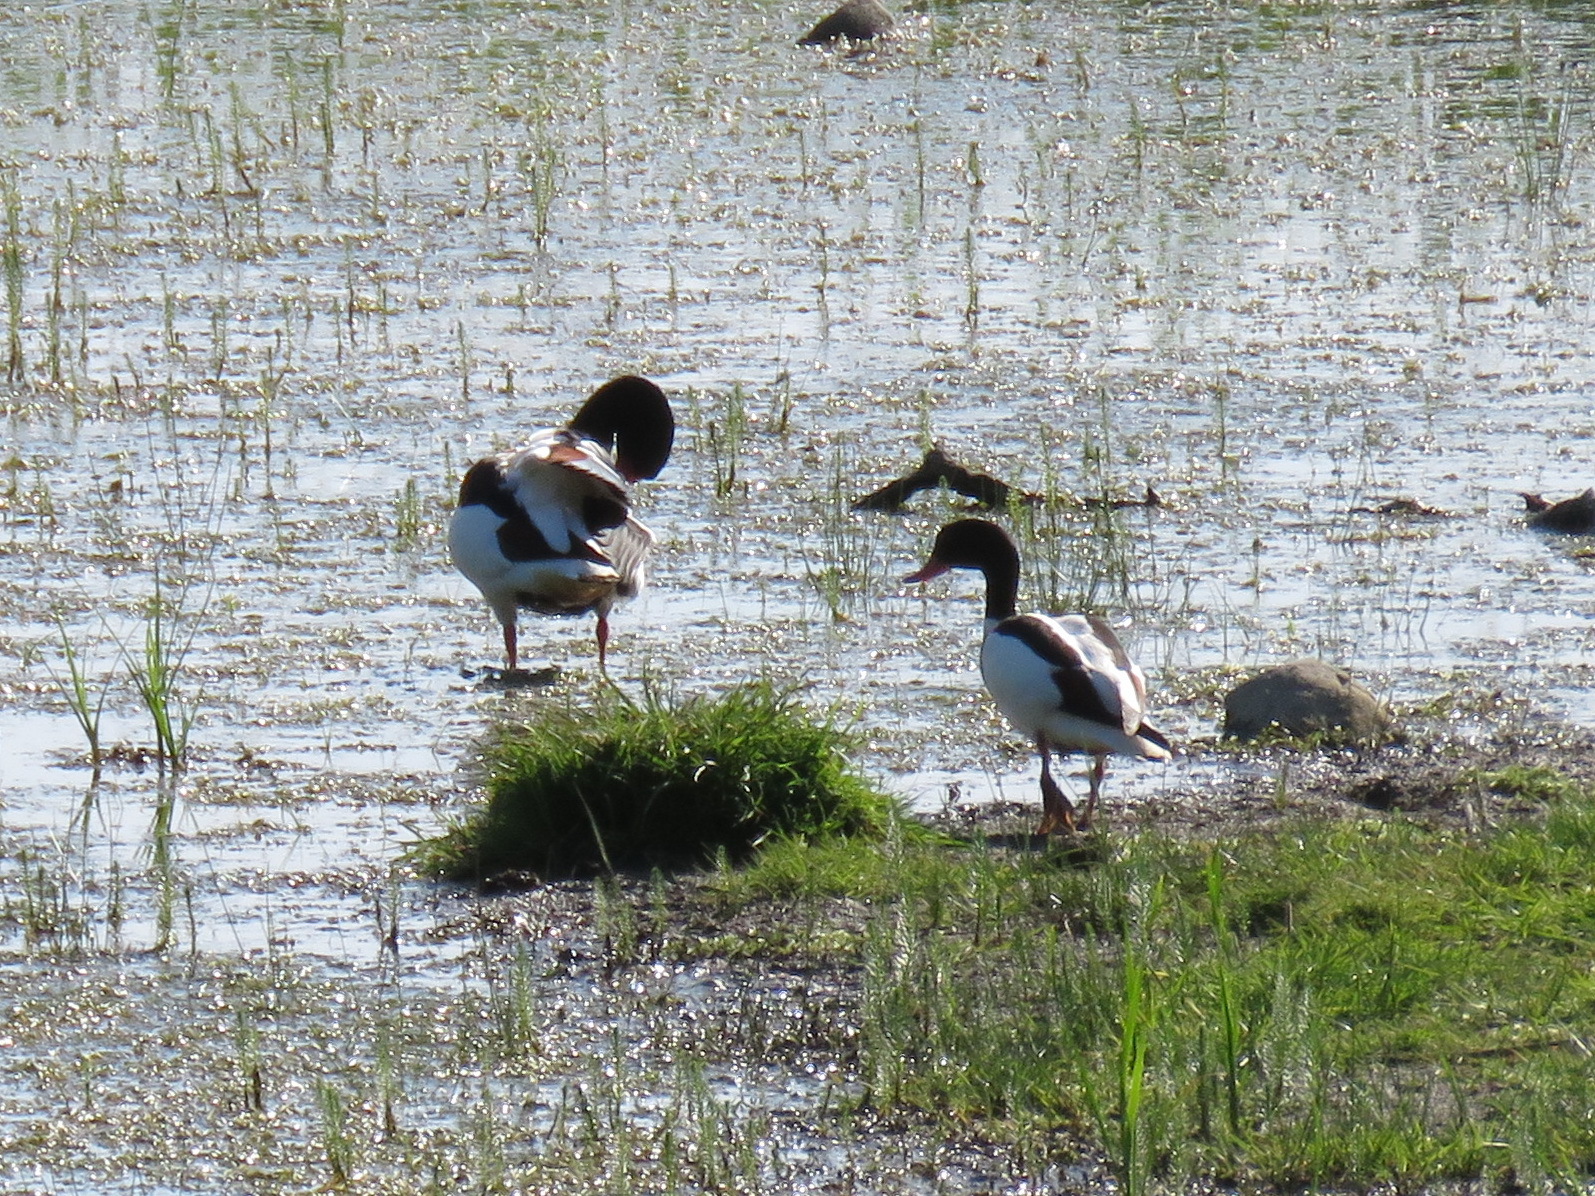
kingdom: Animalia
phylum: Chordata
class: Aves
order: Anseriformes
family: Anatidae
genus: Tadorna
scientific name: Tadorna tadorna
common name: Common shelduck
